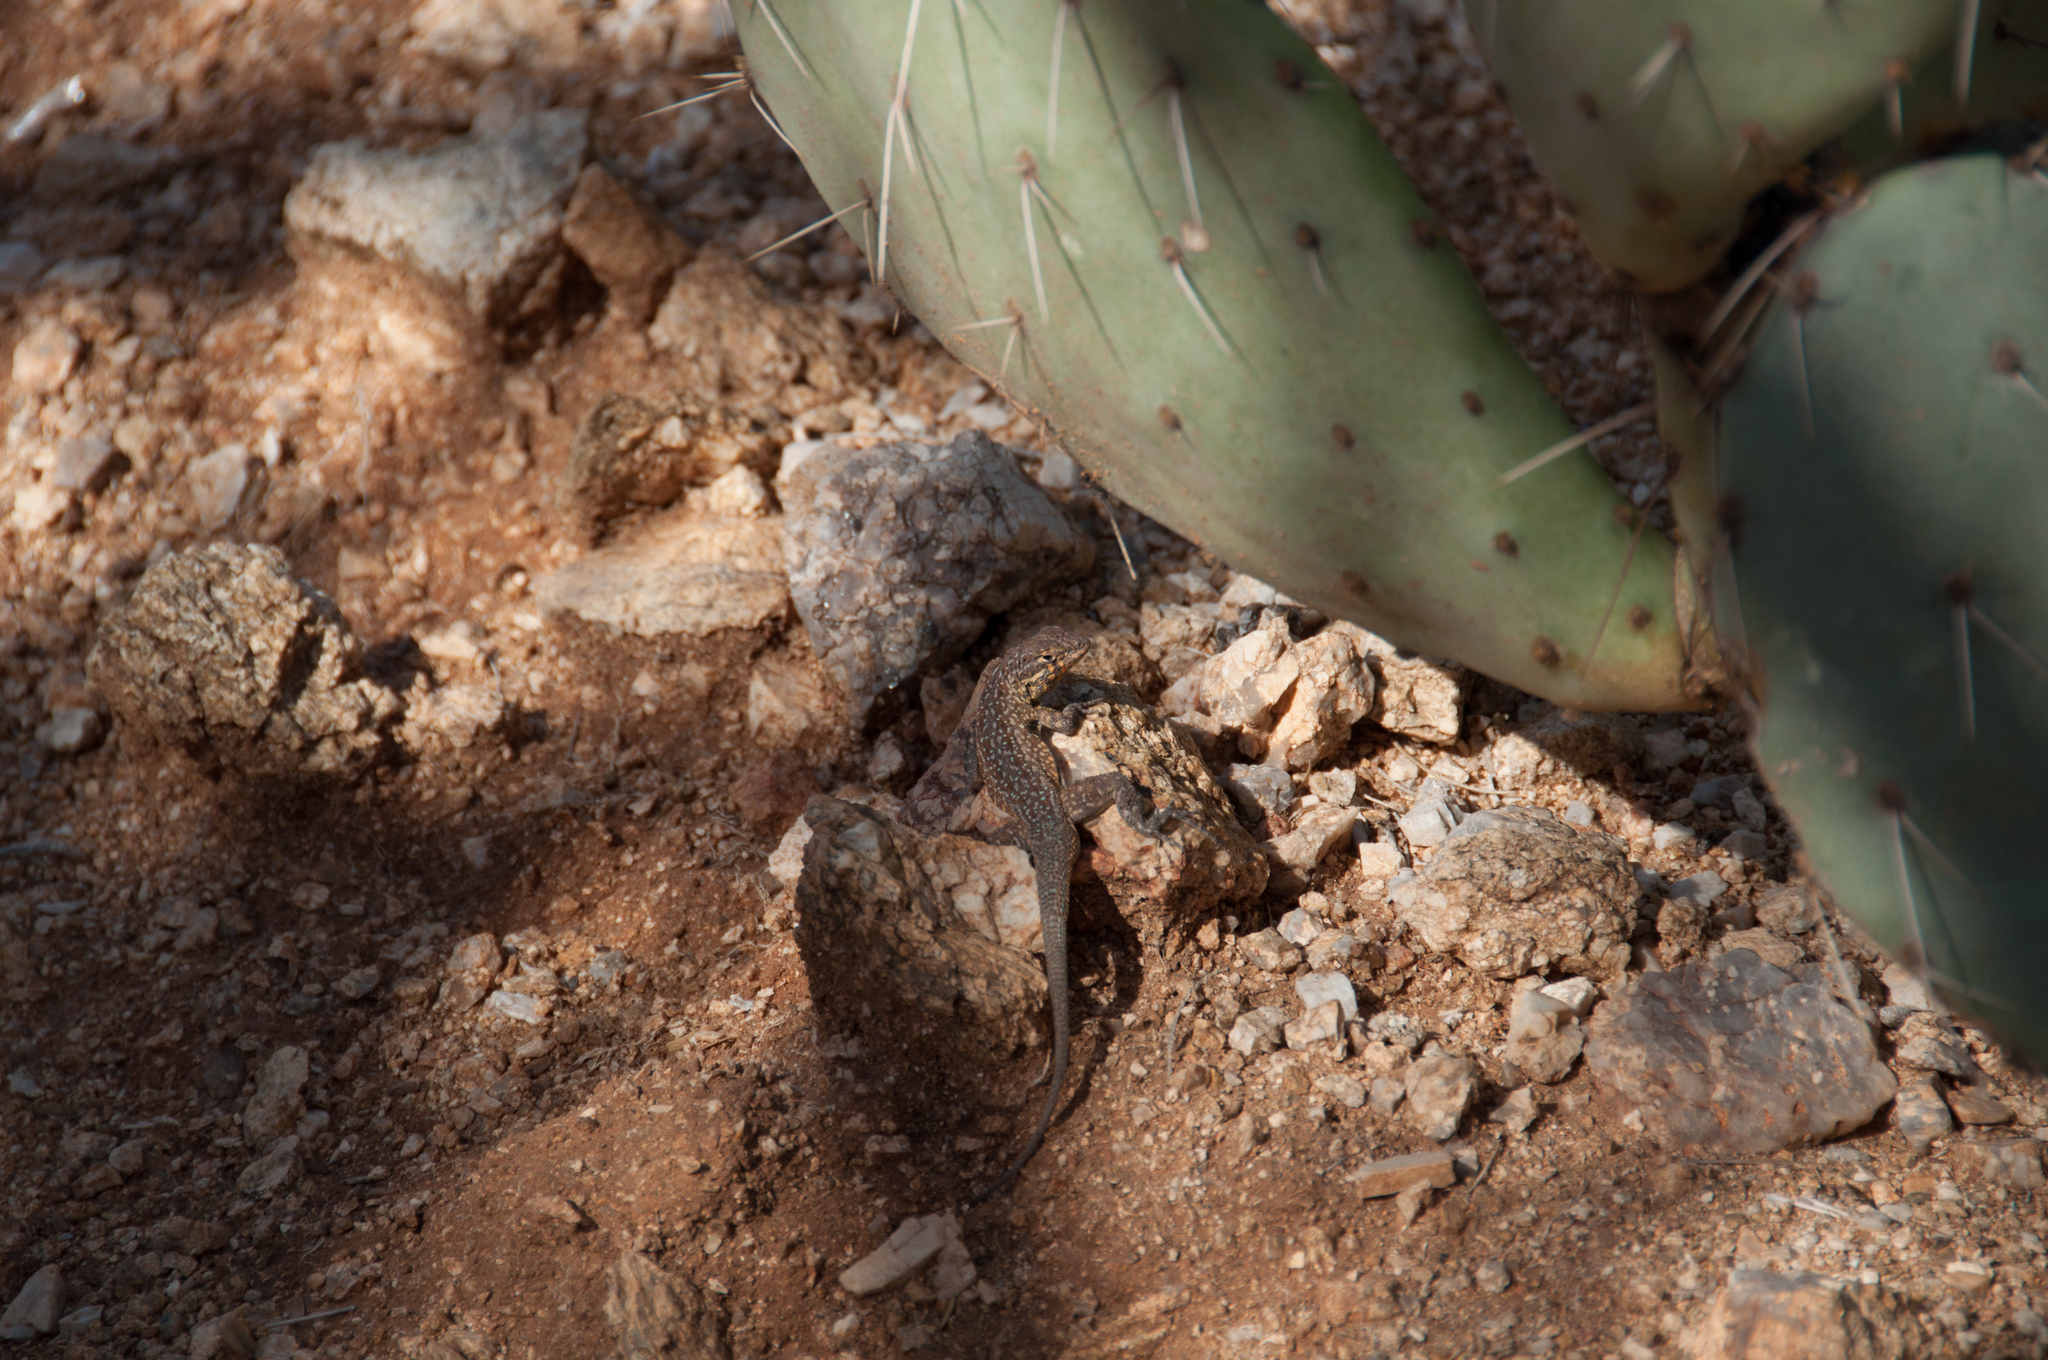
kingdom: Animalia
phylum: Chordata
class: Squamata
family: Phrynosomatidae
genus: Uta
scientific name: Uta stansburiana
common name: Side-blotched lizard
